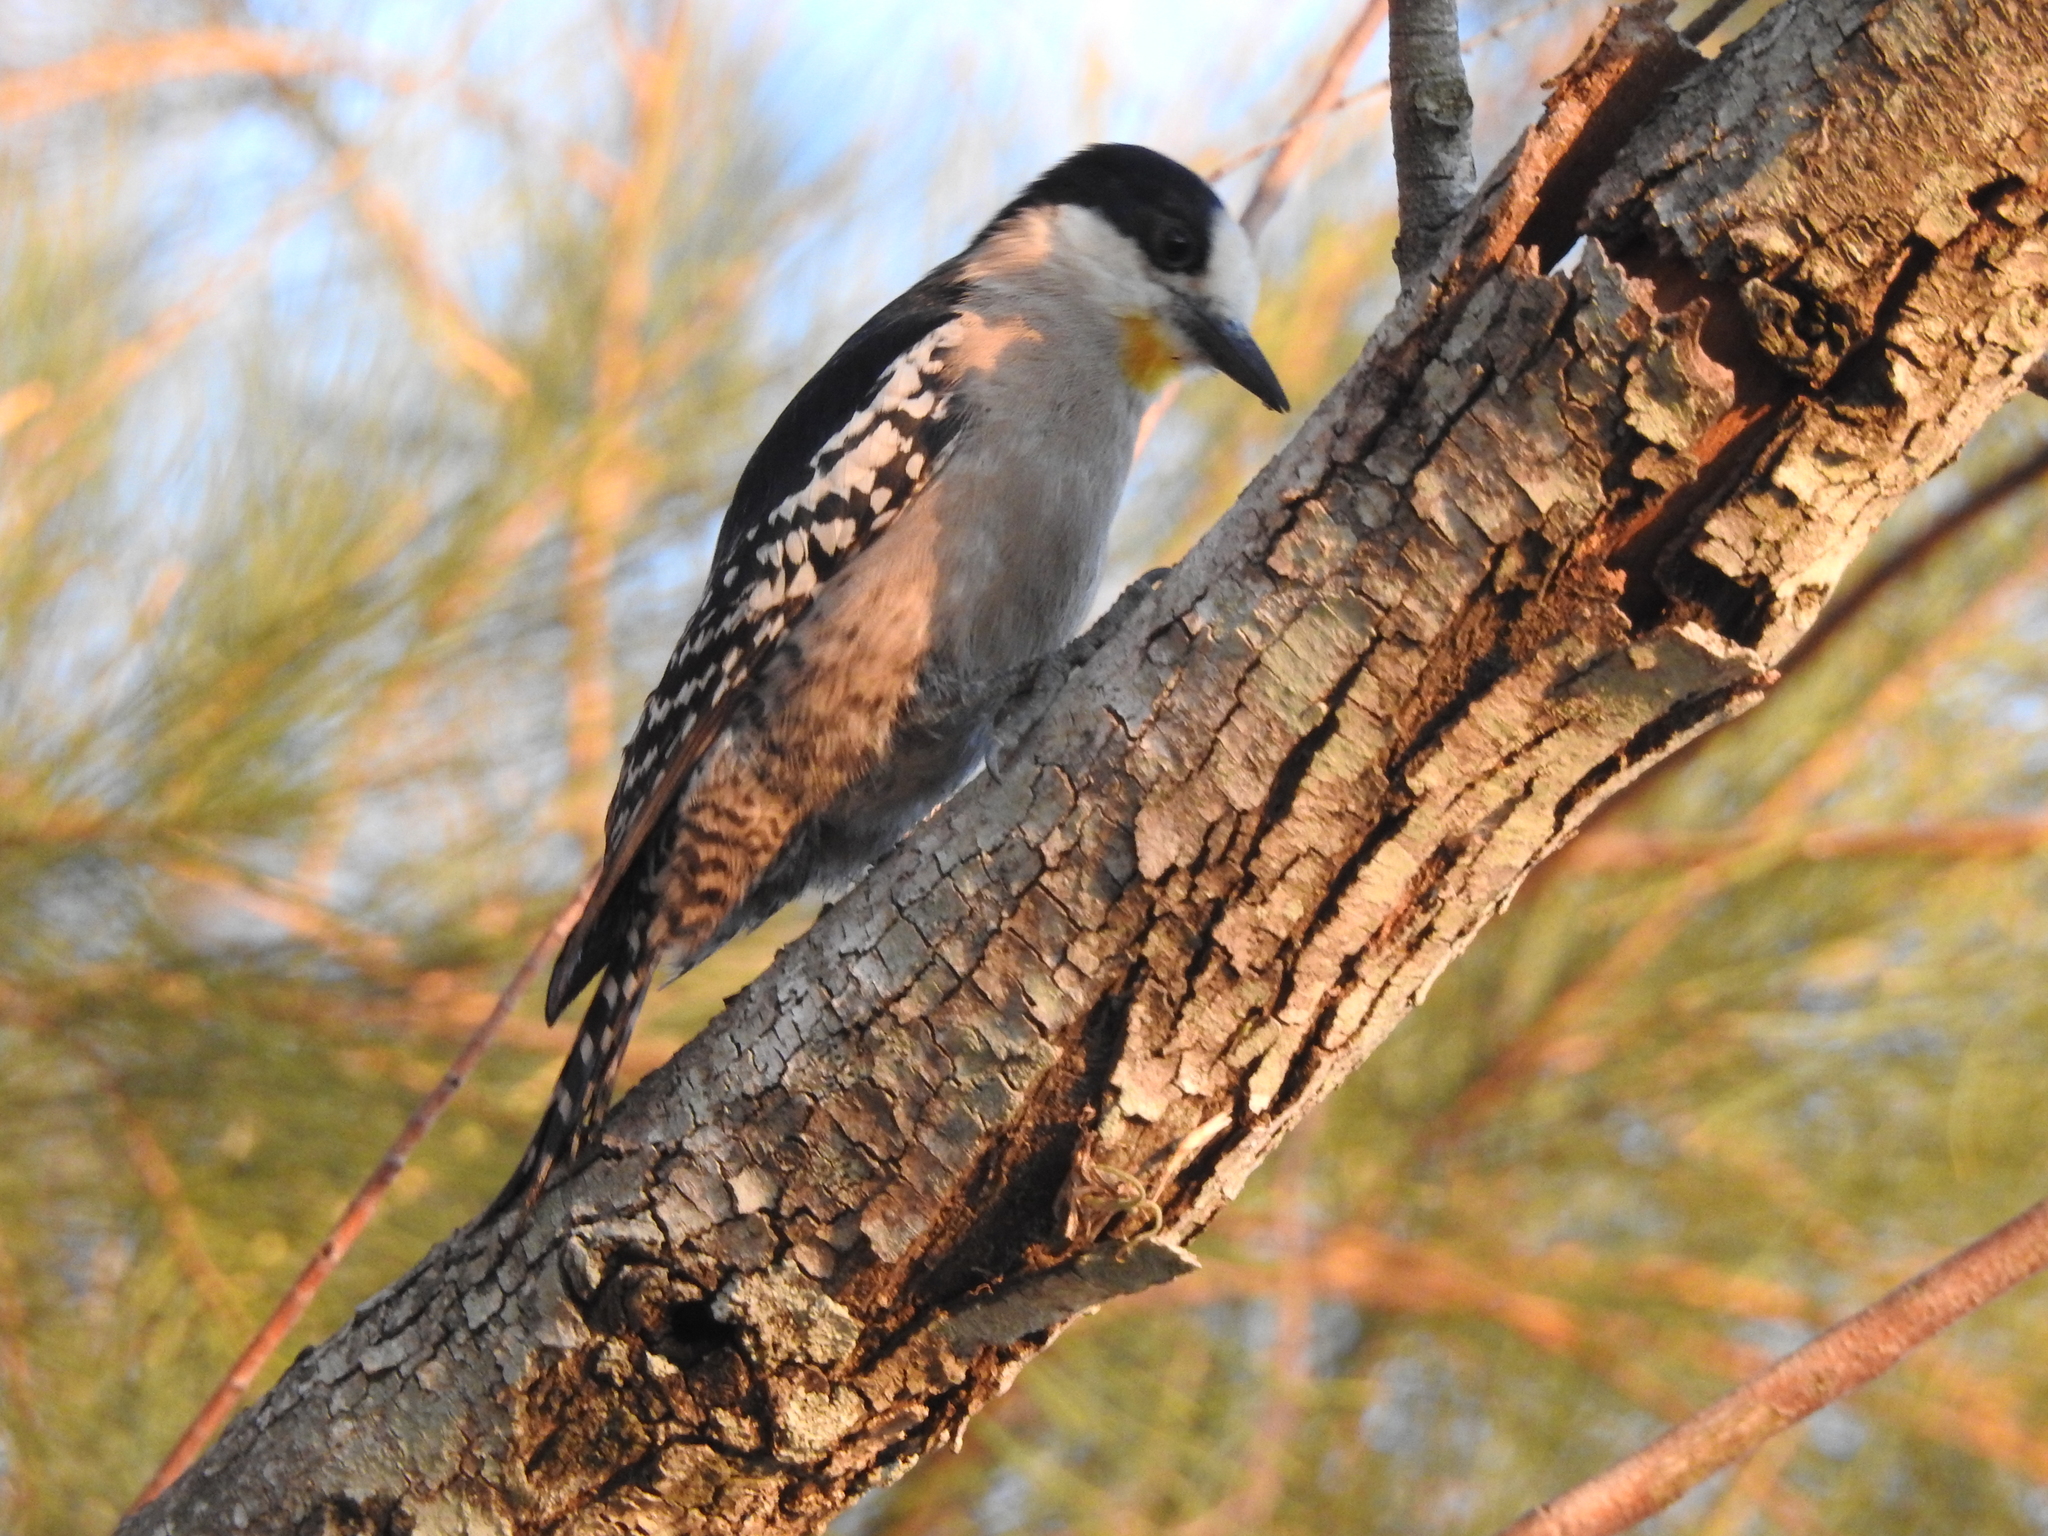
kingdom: Animalia
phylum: Chordata
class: Aves
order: Piciformes
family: Picidae
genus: Melanerpes
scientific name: Melanerpes cactorum
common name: White-fronted woodpecker
